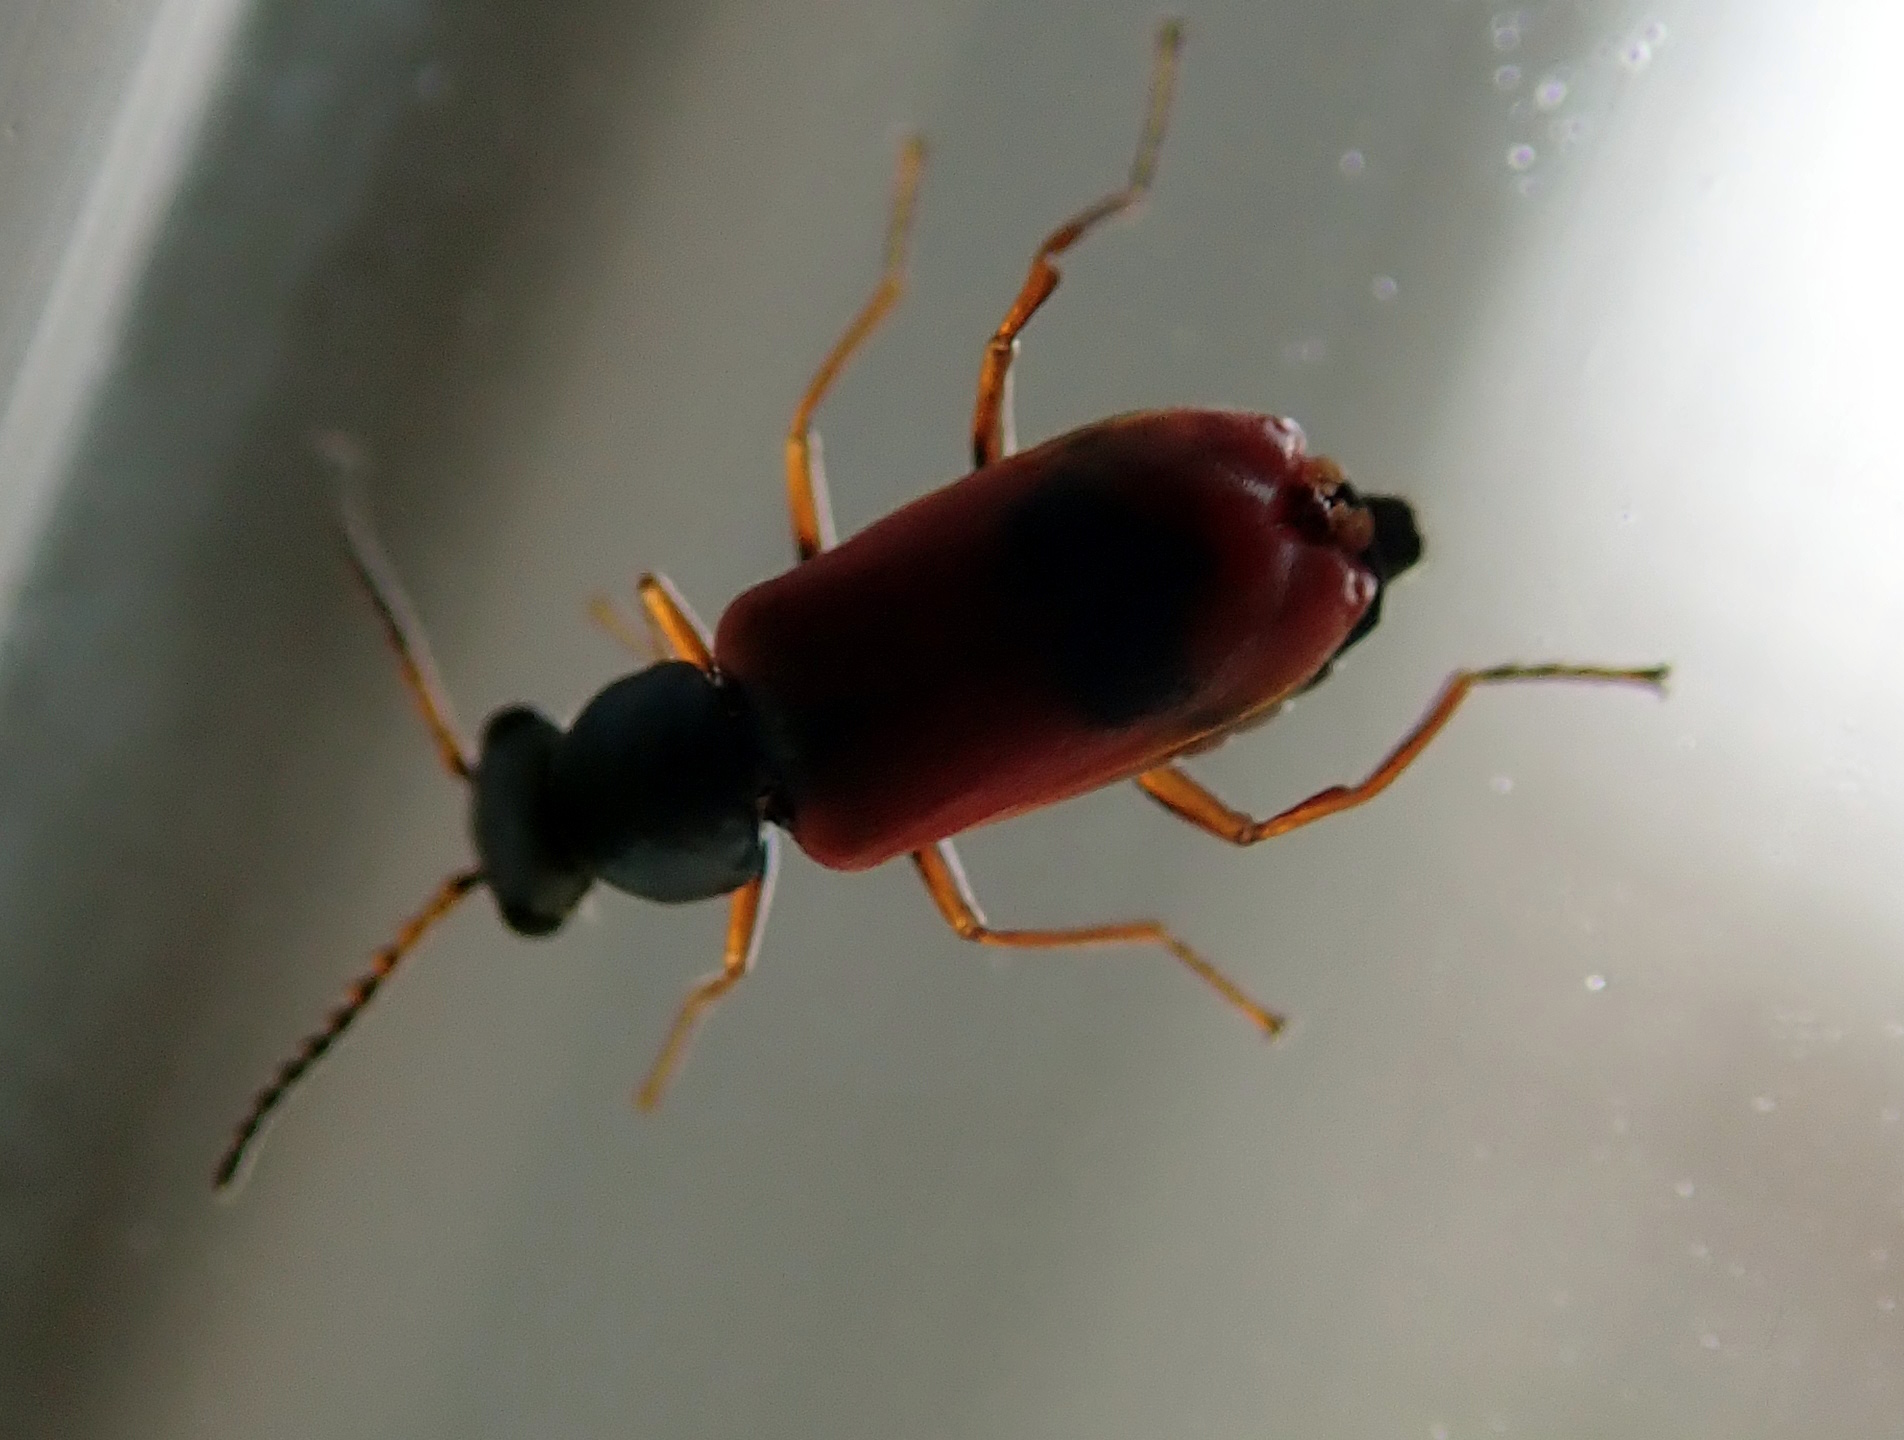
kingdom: Animalia
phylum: Arthropoda
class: Insecta
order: Coleoptera
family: Melyridae
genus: Anthocomus
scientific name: Anthocomus equestris
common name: Black-banded soft-winged flower beetle
